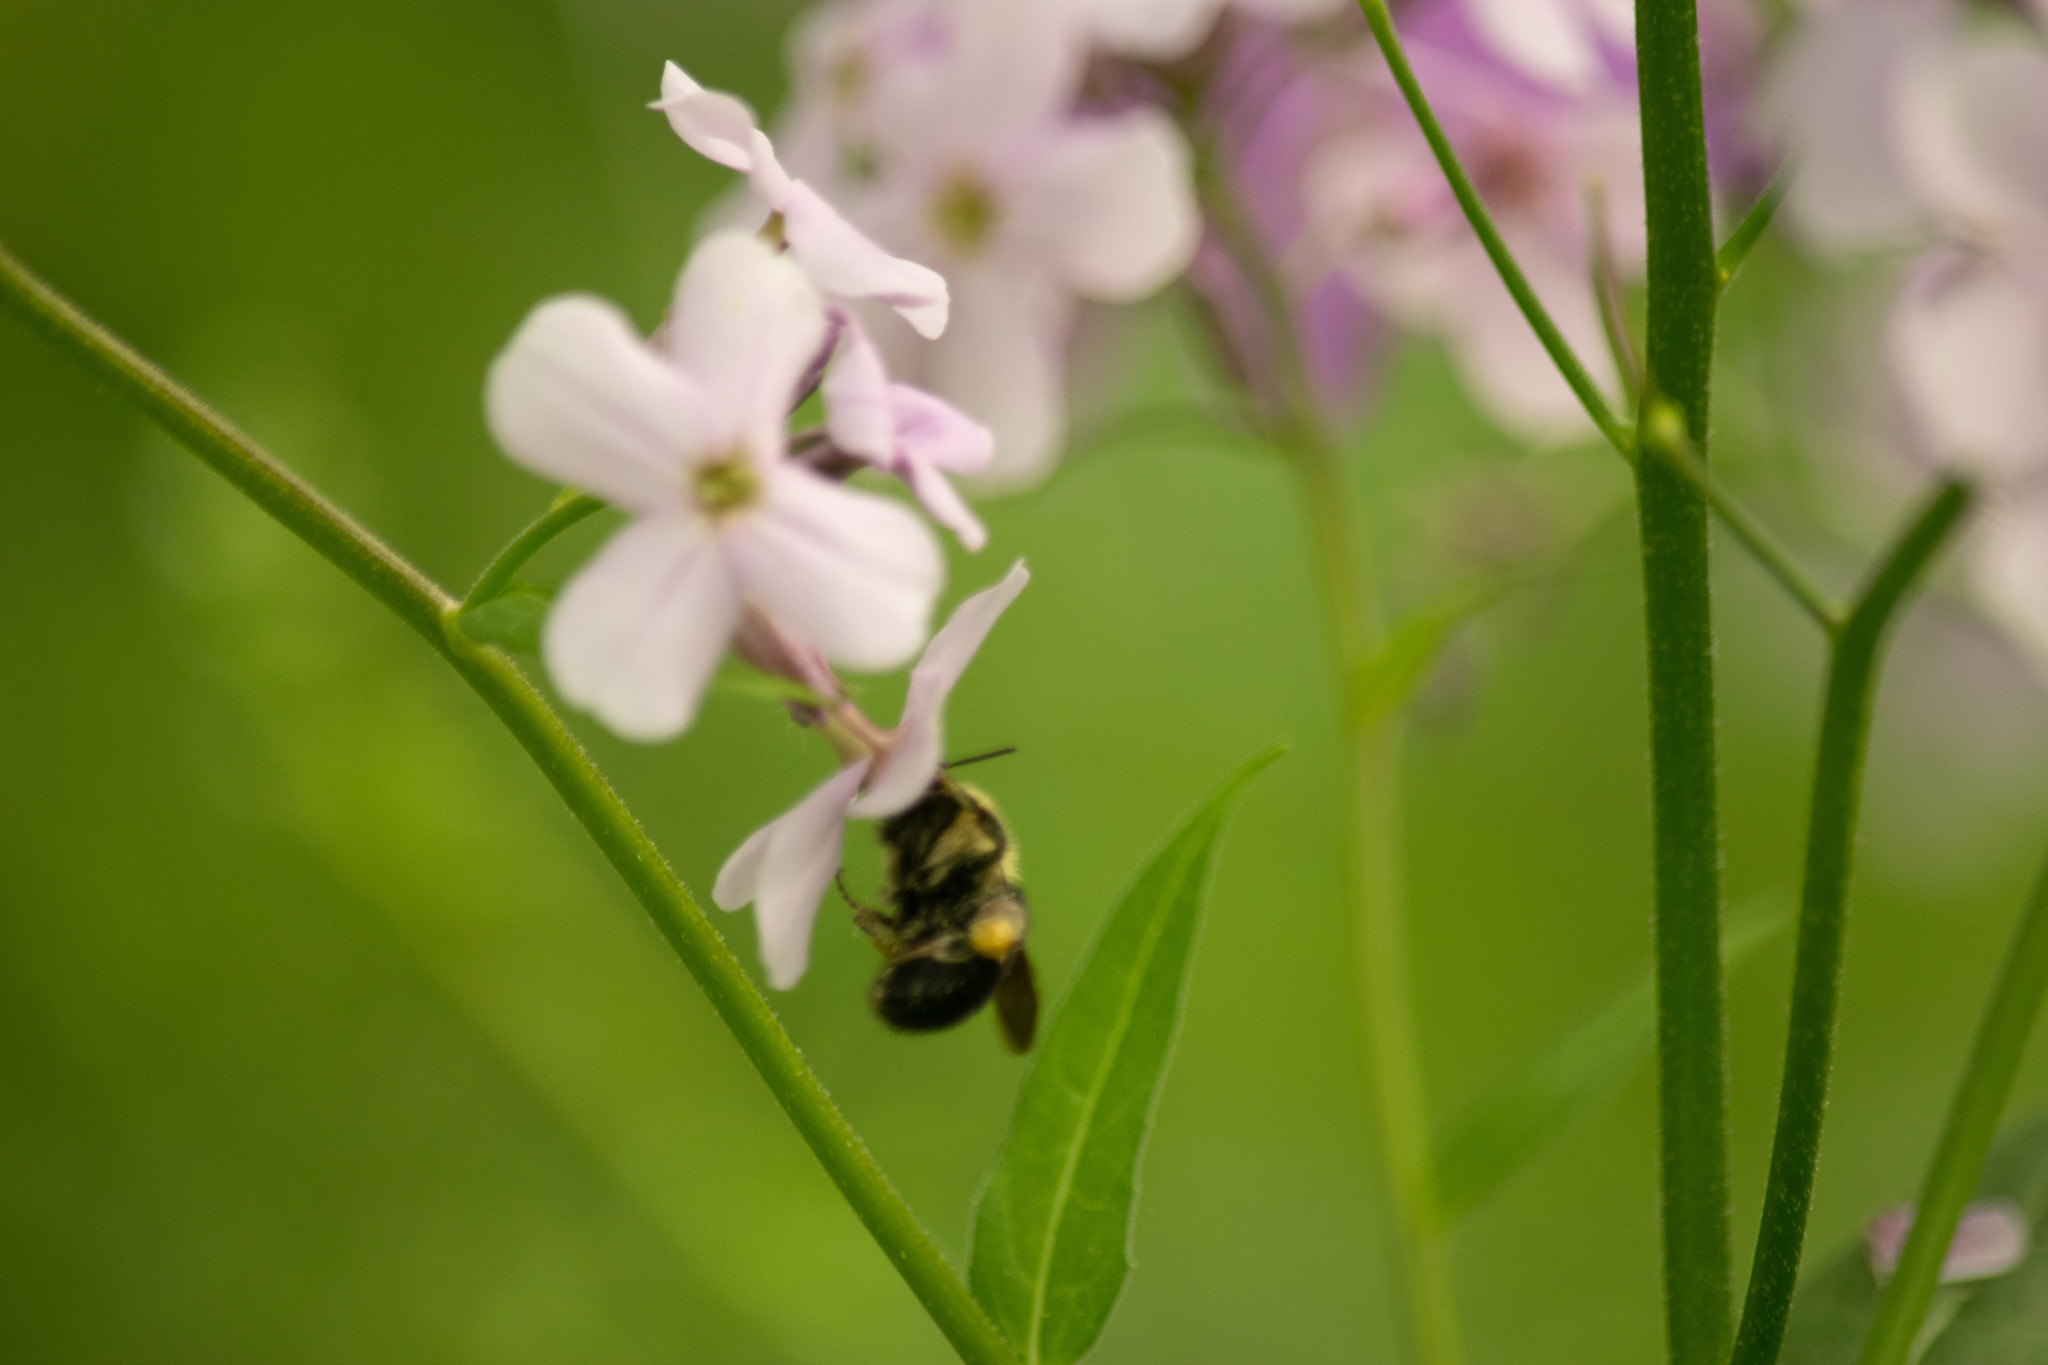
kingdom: Animalia
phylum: Arthropoda
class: Insecta
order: Hymenoptera
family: Apidae
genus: Bombus
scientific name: Bombus bimaculatus
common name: Two-spotted bumble bee
